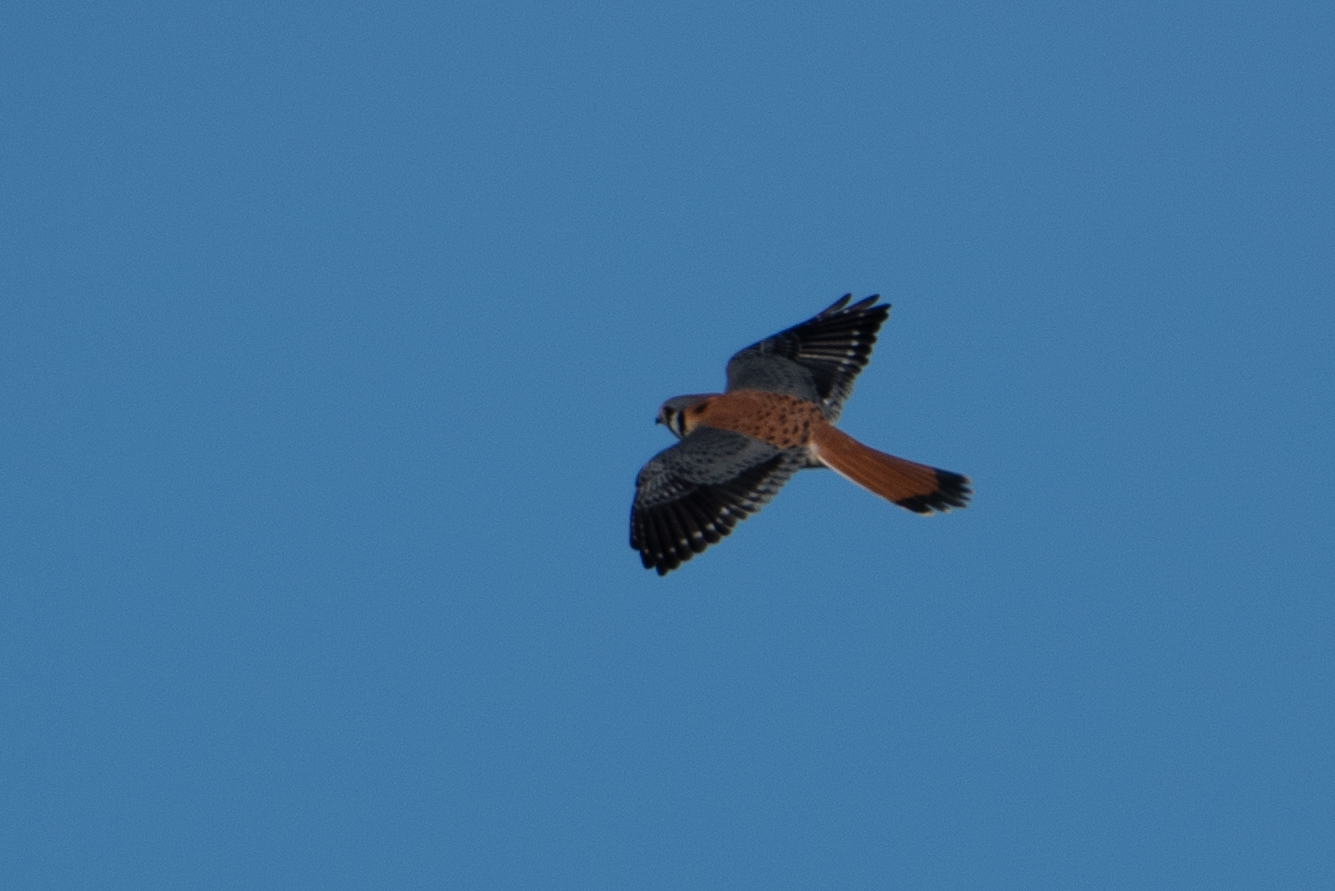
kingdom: Animalia
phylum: Chordata
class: Aves
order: Falconiformes
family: Falconidae
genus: Falco
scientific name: Falco sparverius
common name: American kestrel
